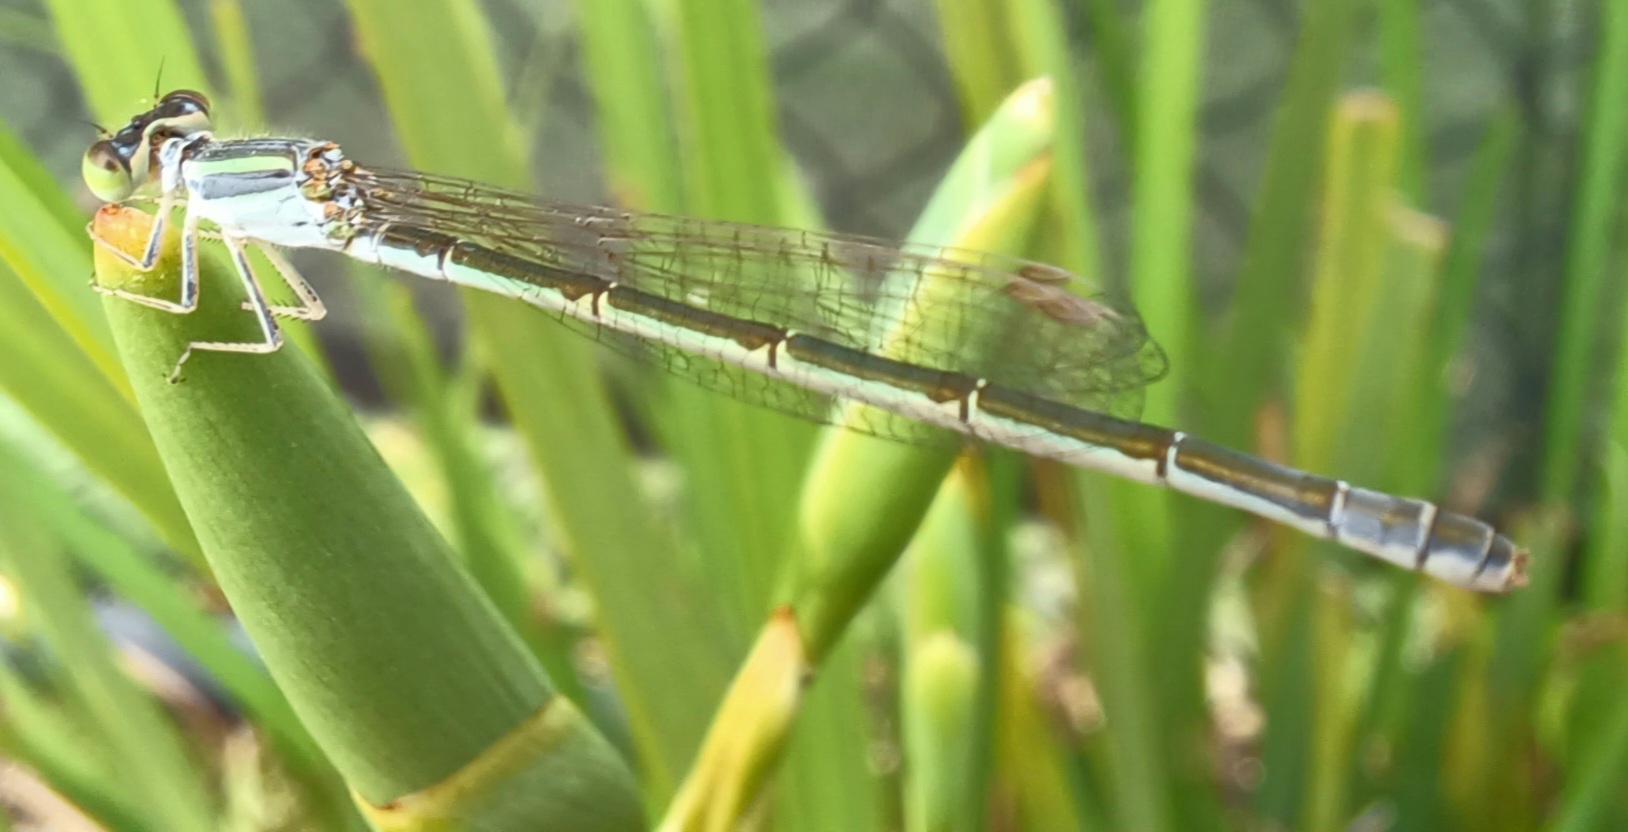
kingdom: Animalia
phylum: Arthropoda
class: Insecta
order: Odonata
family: Coenagrionidae
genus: Ischnura
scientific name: Ischnura aurora
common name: Gossamer damselfly
